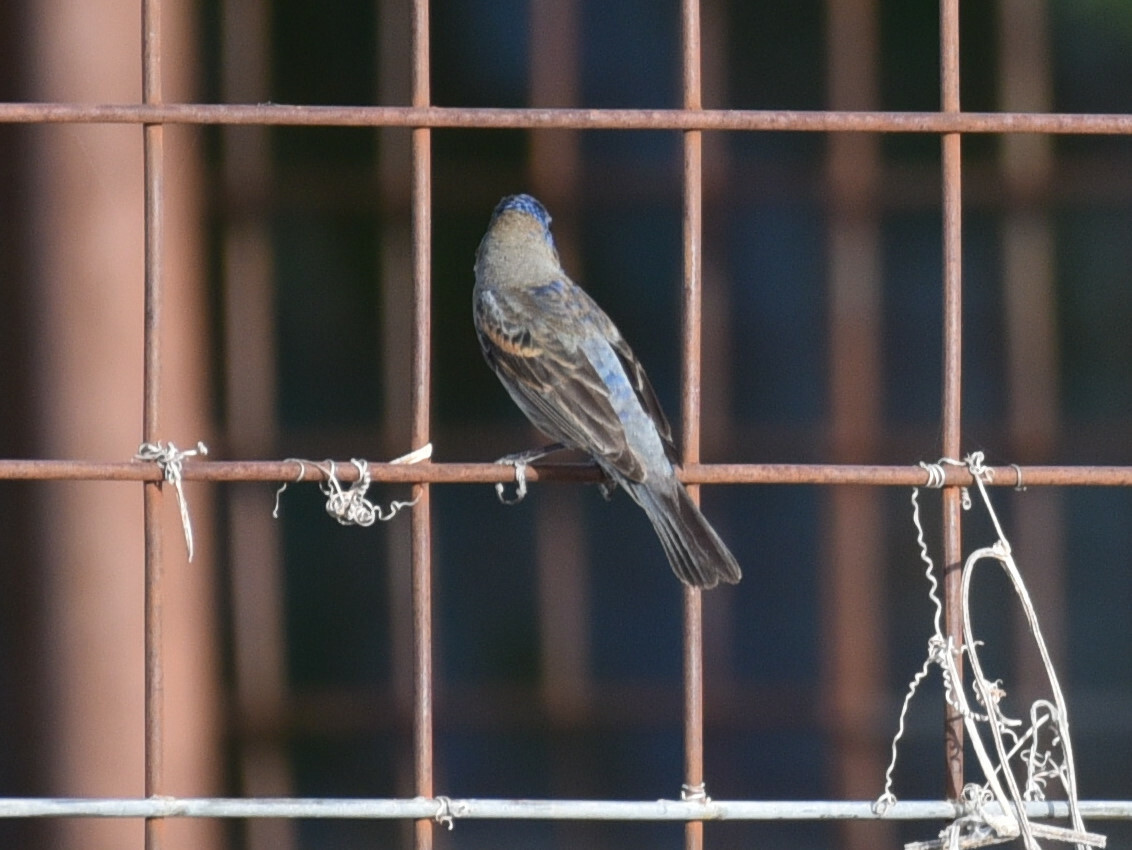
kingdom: Animalia
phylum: Chordata
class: Aves
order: Passeriformes
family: Cardinalidae
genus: Passerina
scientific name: Passerina caerulea
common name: Blue grosbeak
